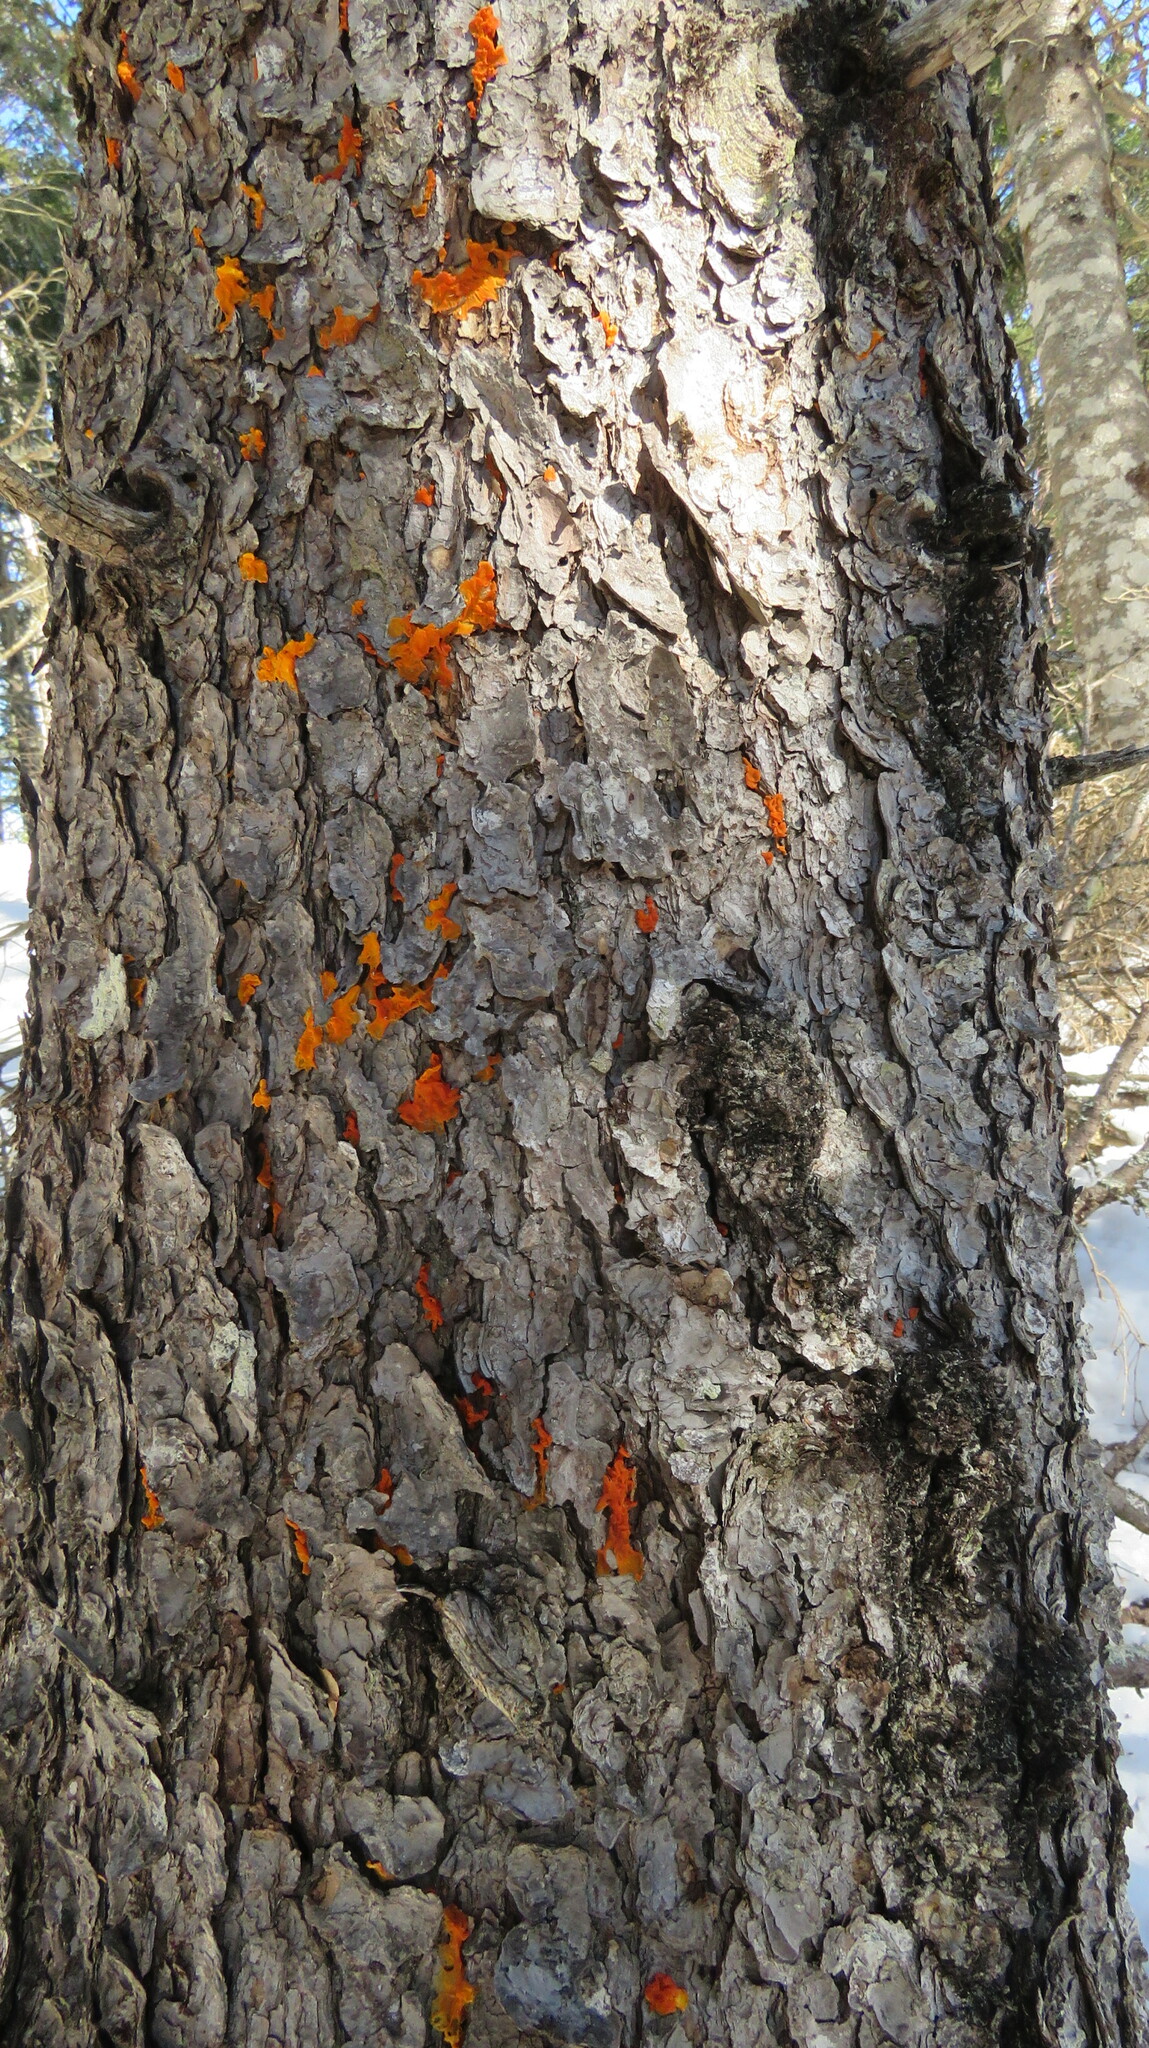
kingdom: Fungi
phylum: Basidiomycota
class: Dacrymycetes
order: Dacrymycetales
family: Dacrymycetaceae
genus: Dacrymyces
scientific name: Dacrymyces chrysospermus
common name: Orange jelly spot
